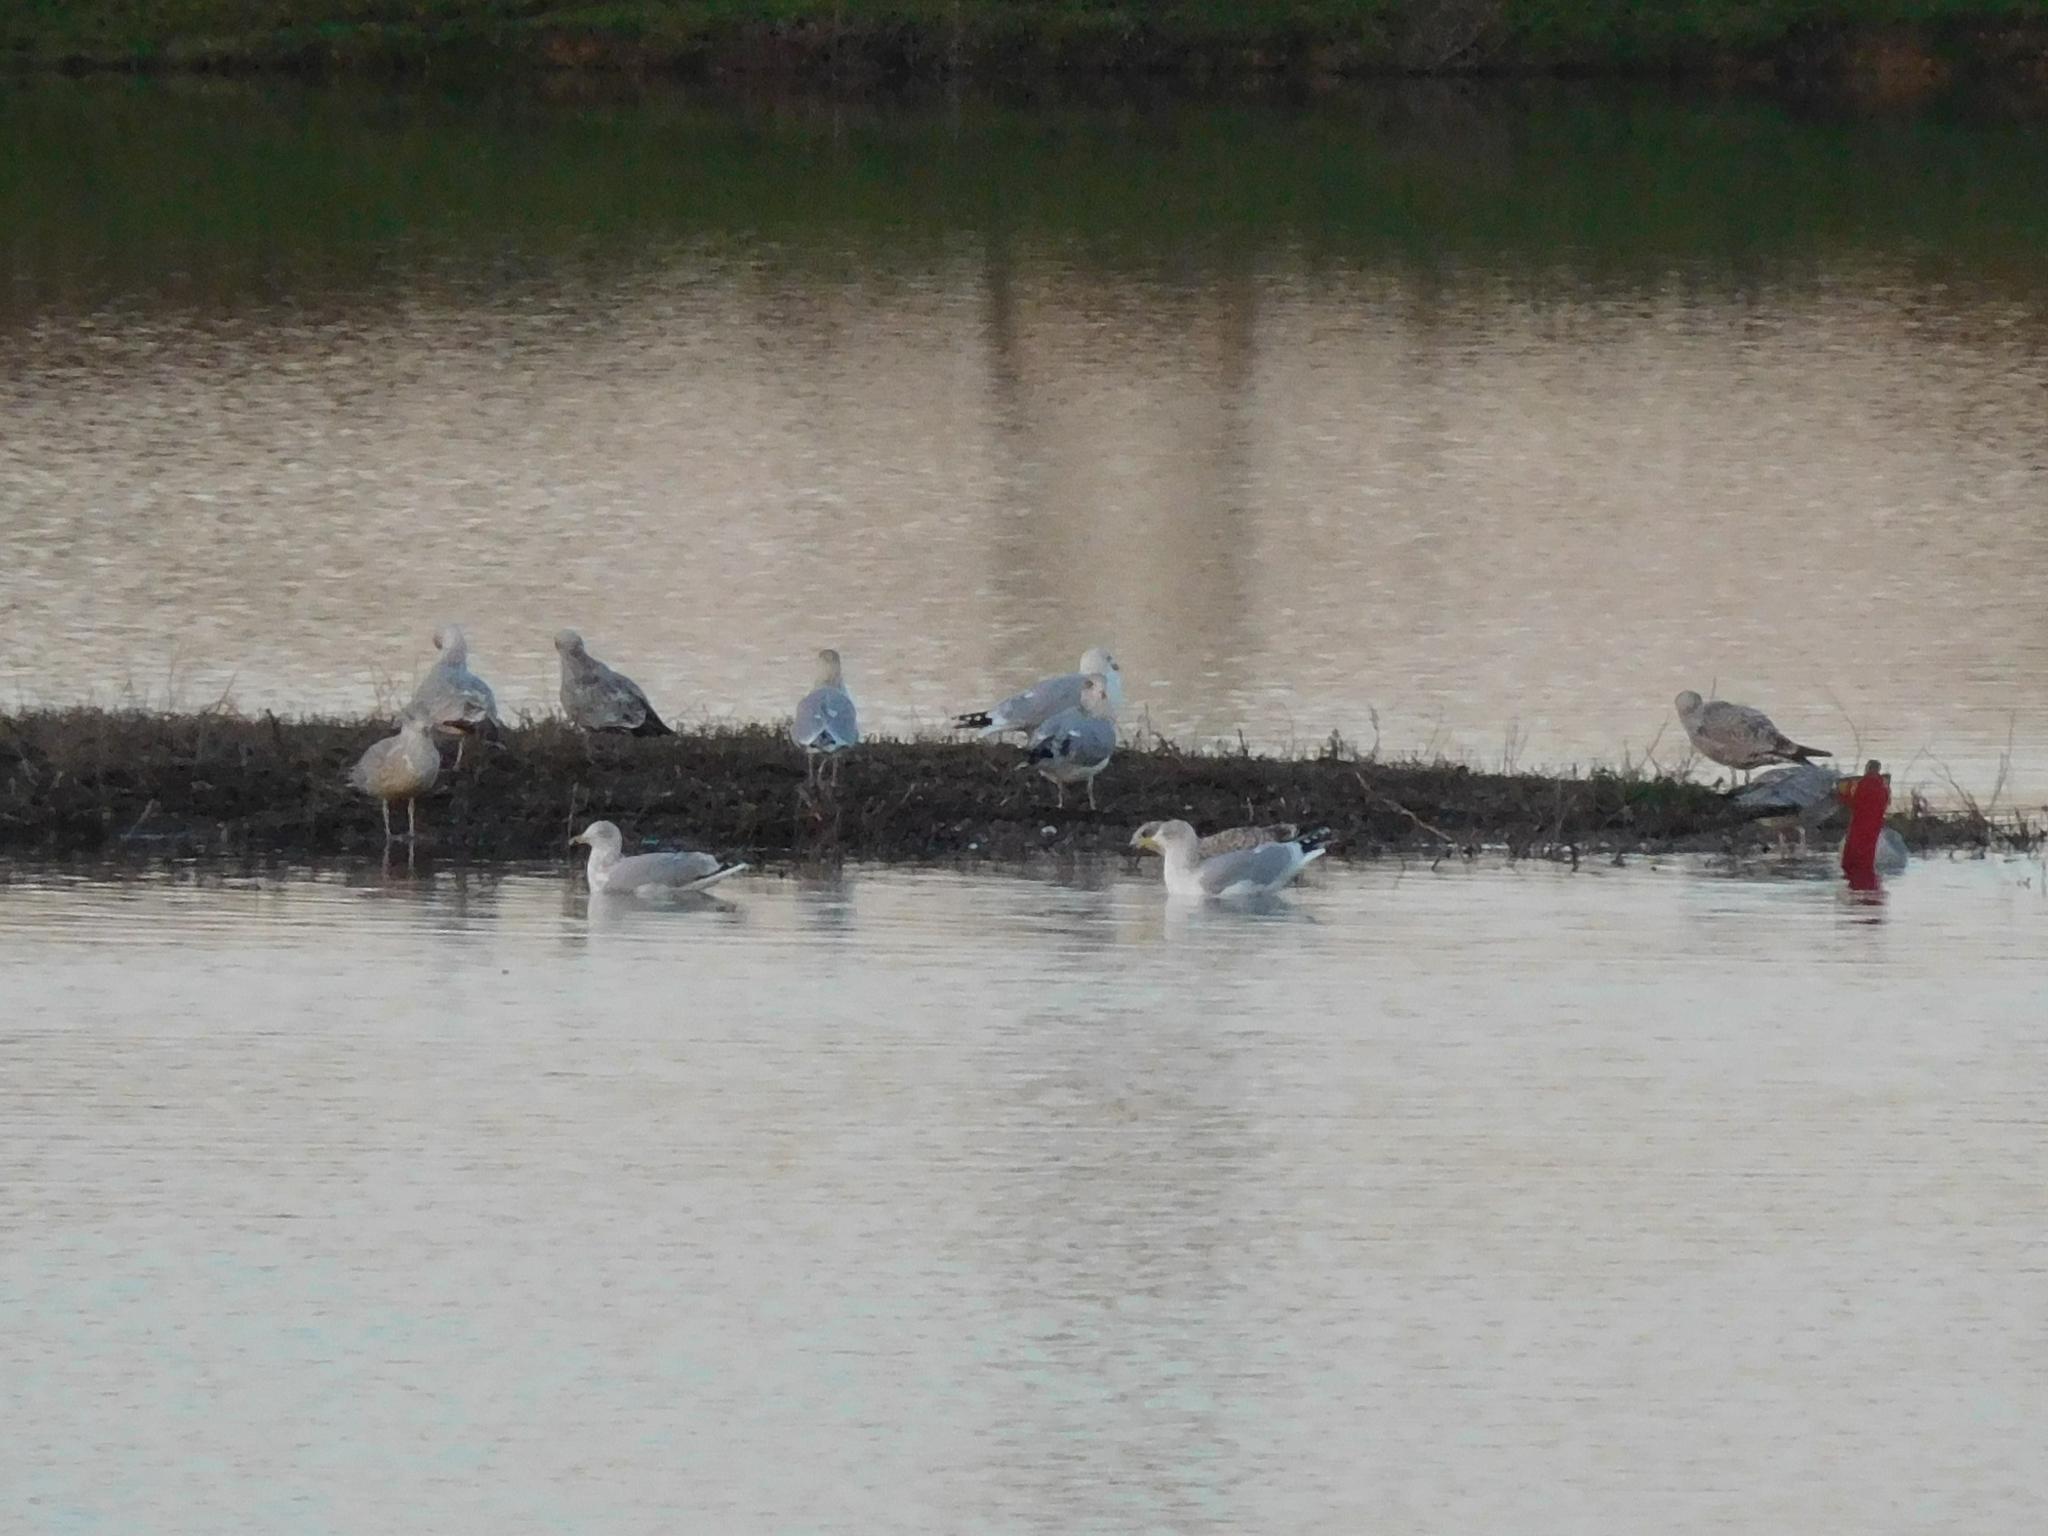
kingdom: Animalia
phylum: Chordata
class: Aves
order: Charadriiformes
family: Laridae
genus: Larus
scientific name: Larus argentatus
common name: Herring gull
